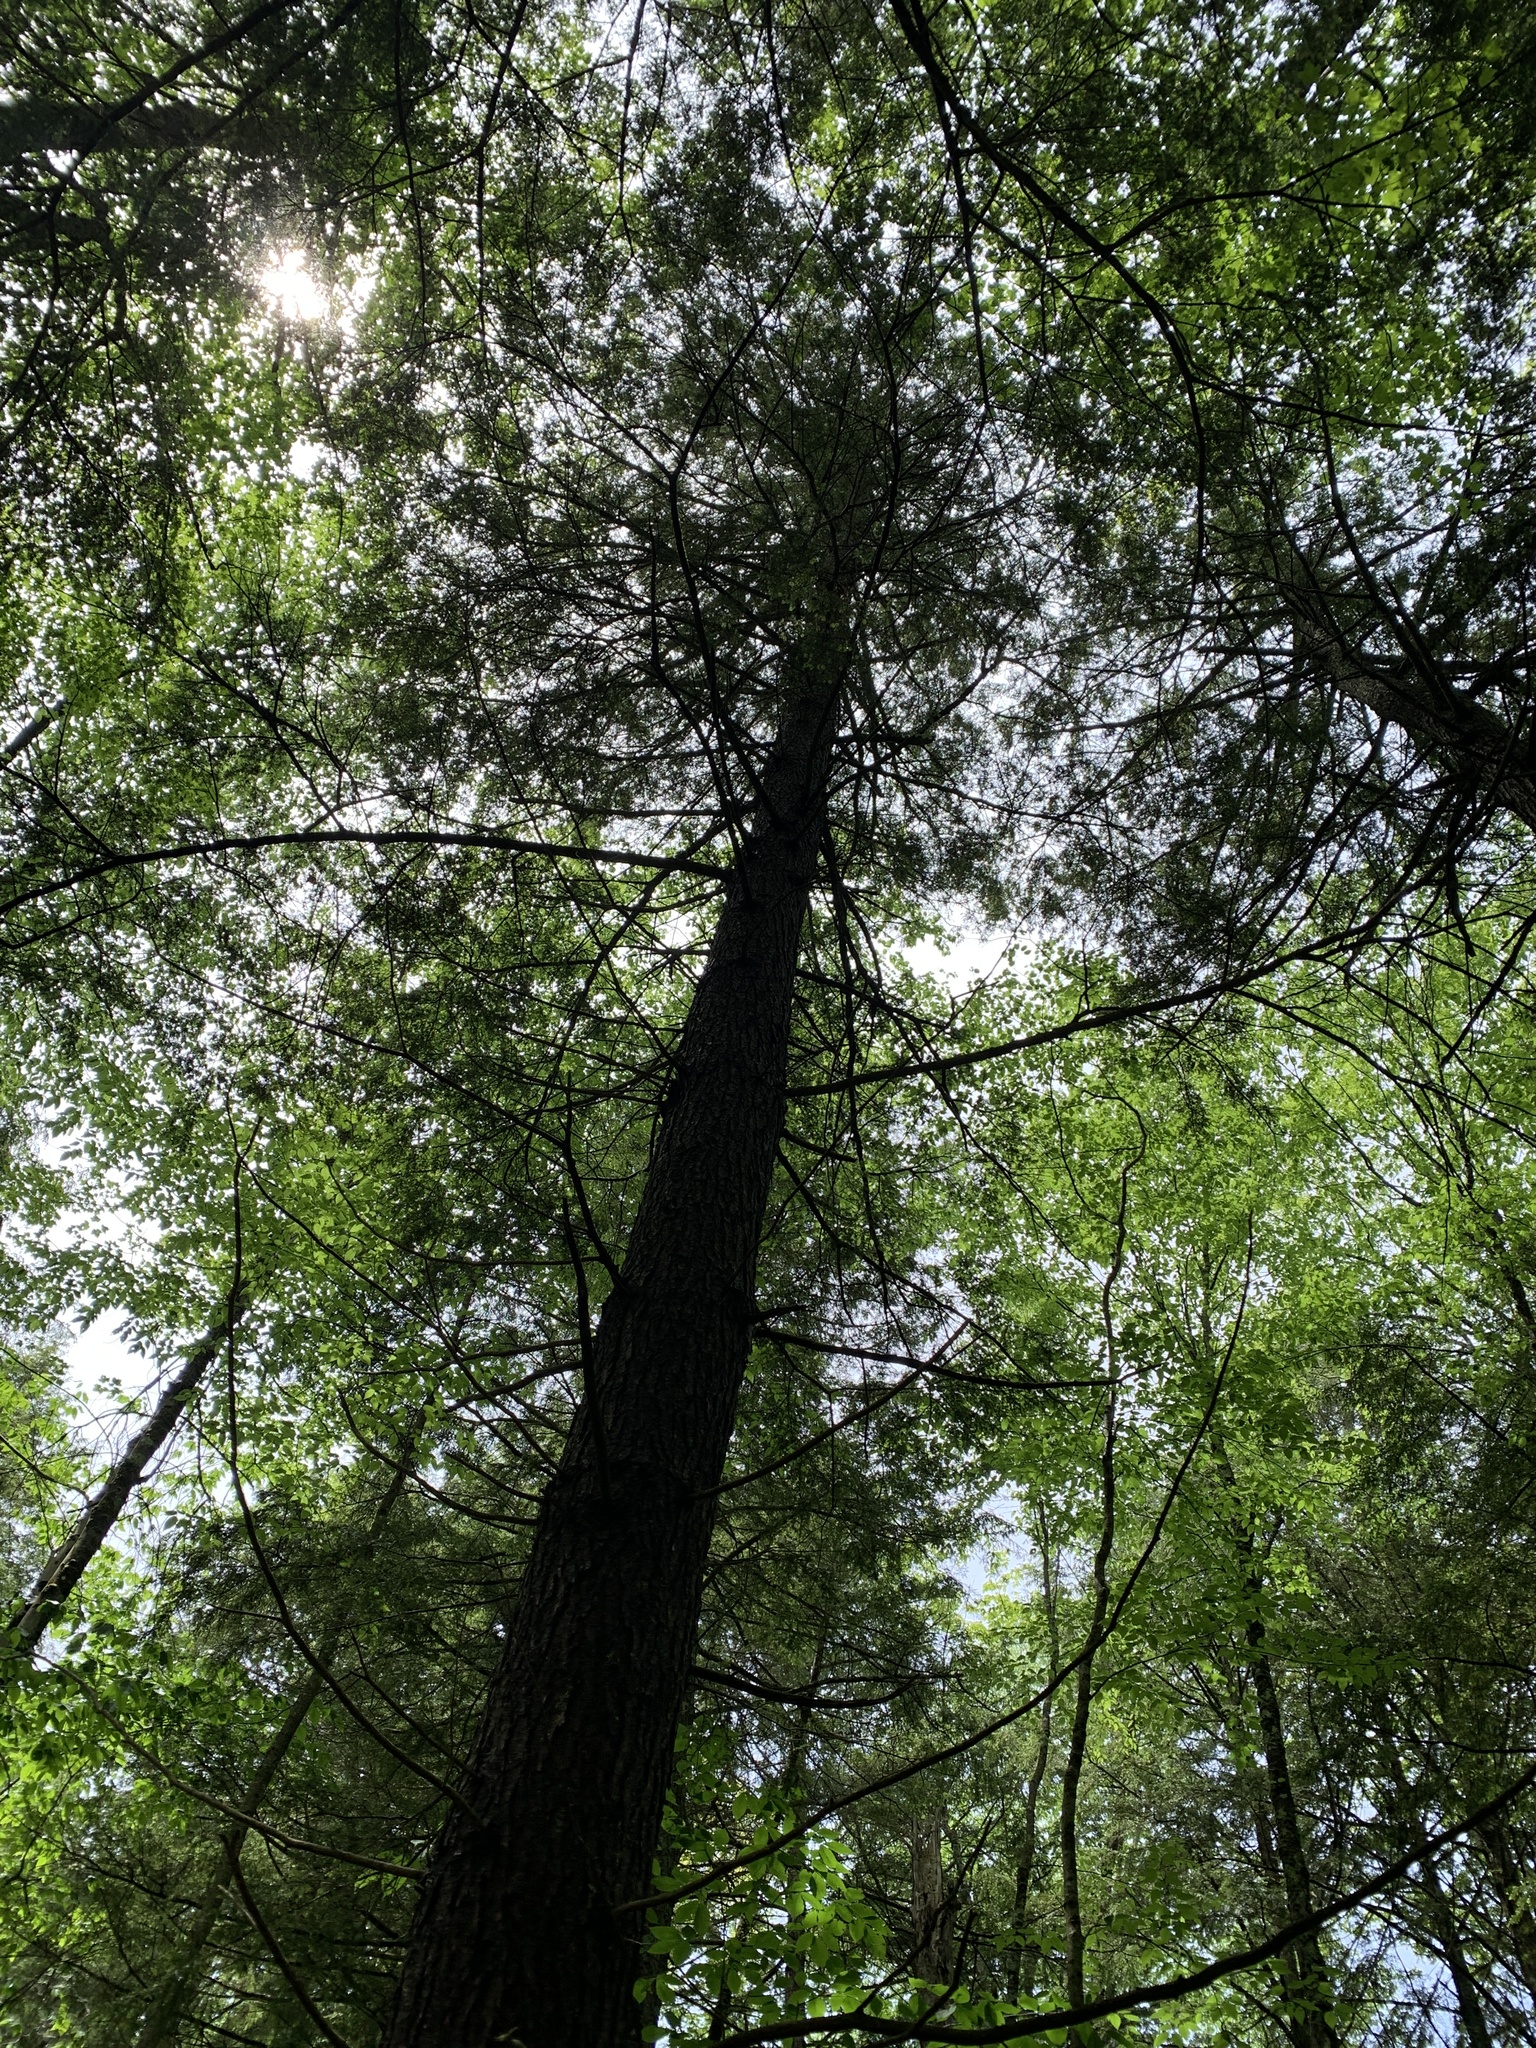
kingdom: Plantae
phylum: Tracheophyta
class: Pinopsida
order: Pinales
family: Pinaceae
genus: Tsuga
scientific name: Tsuga canadensis
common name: Eastern hemlock
